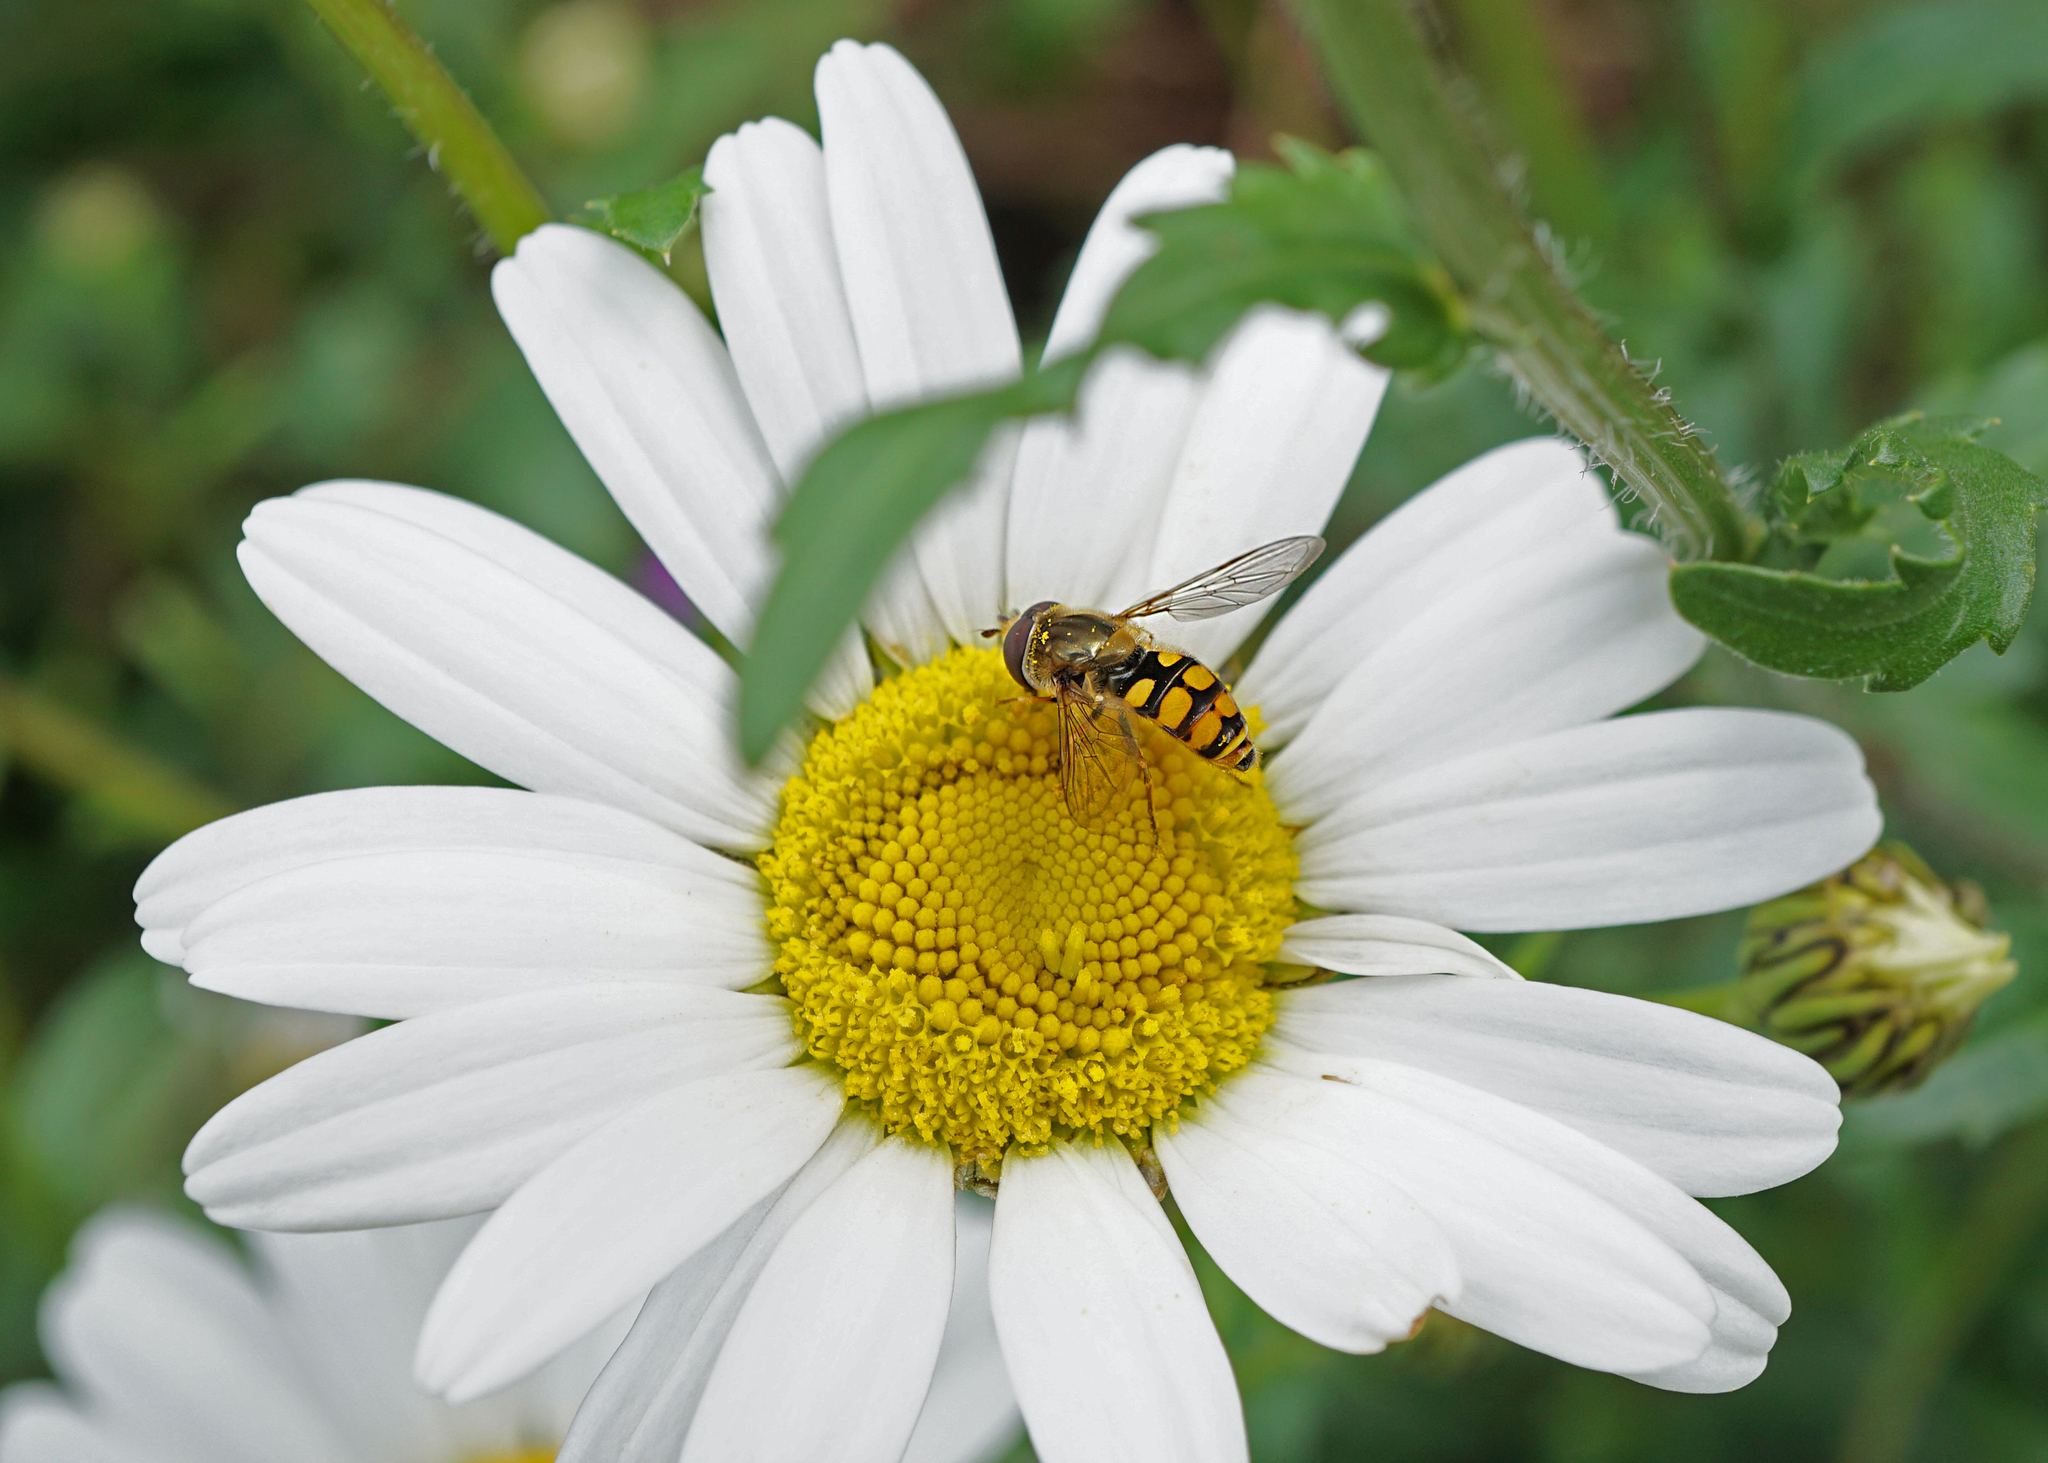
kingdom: Animalia
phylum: Arthropoda
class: Insecta
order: Diptera
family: Syrphidae
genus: Eupeodes
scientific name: Eupeodes corollae
